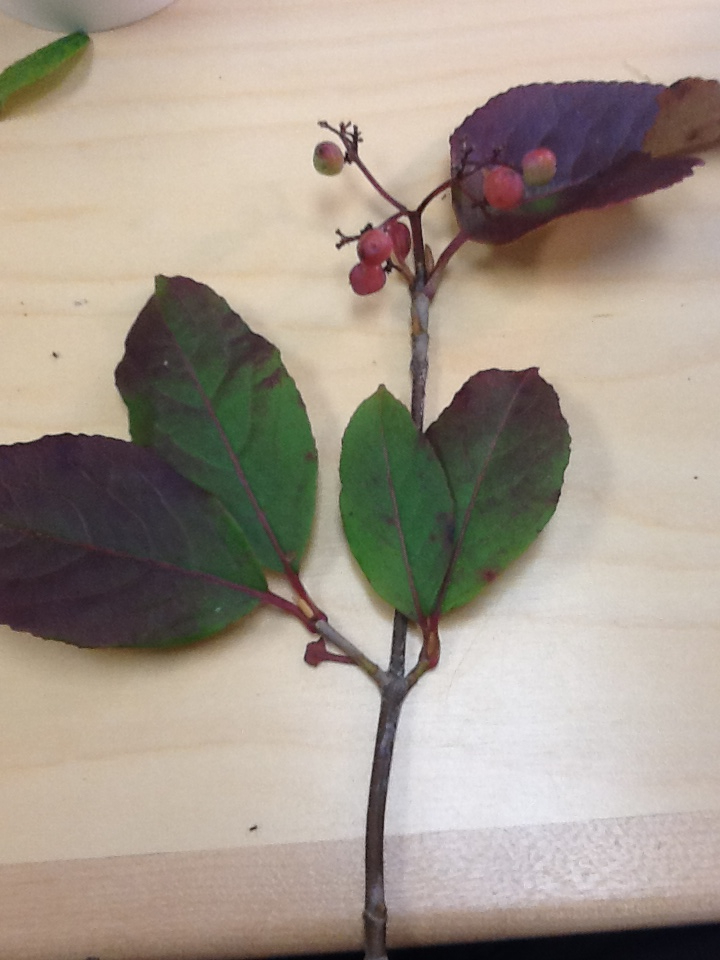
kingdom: Plantae
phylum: Tracheophyta
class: Magnoliopsida
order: Dipsacales
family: Viburnaceae
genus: Viburnum
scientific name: Viburnum cassinoides
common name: Swamp haw
